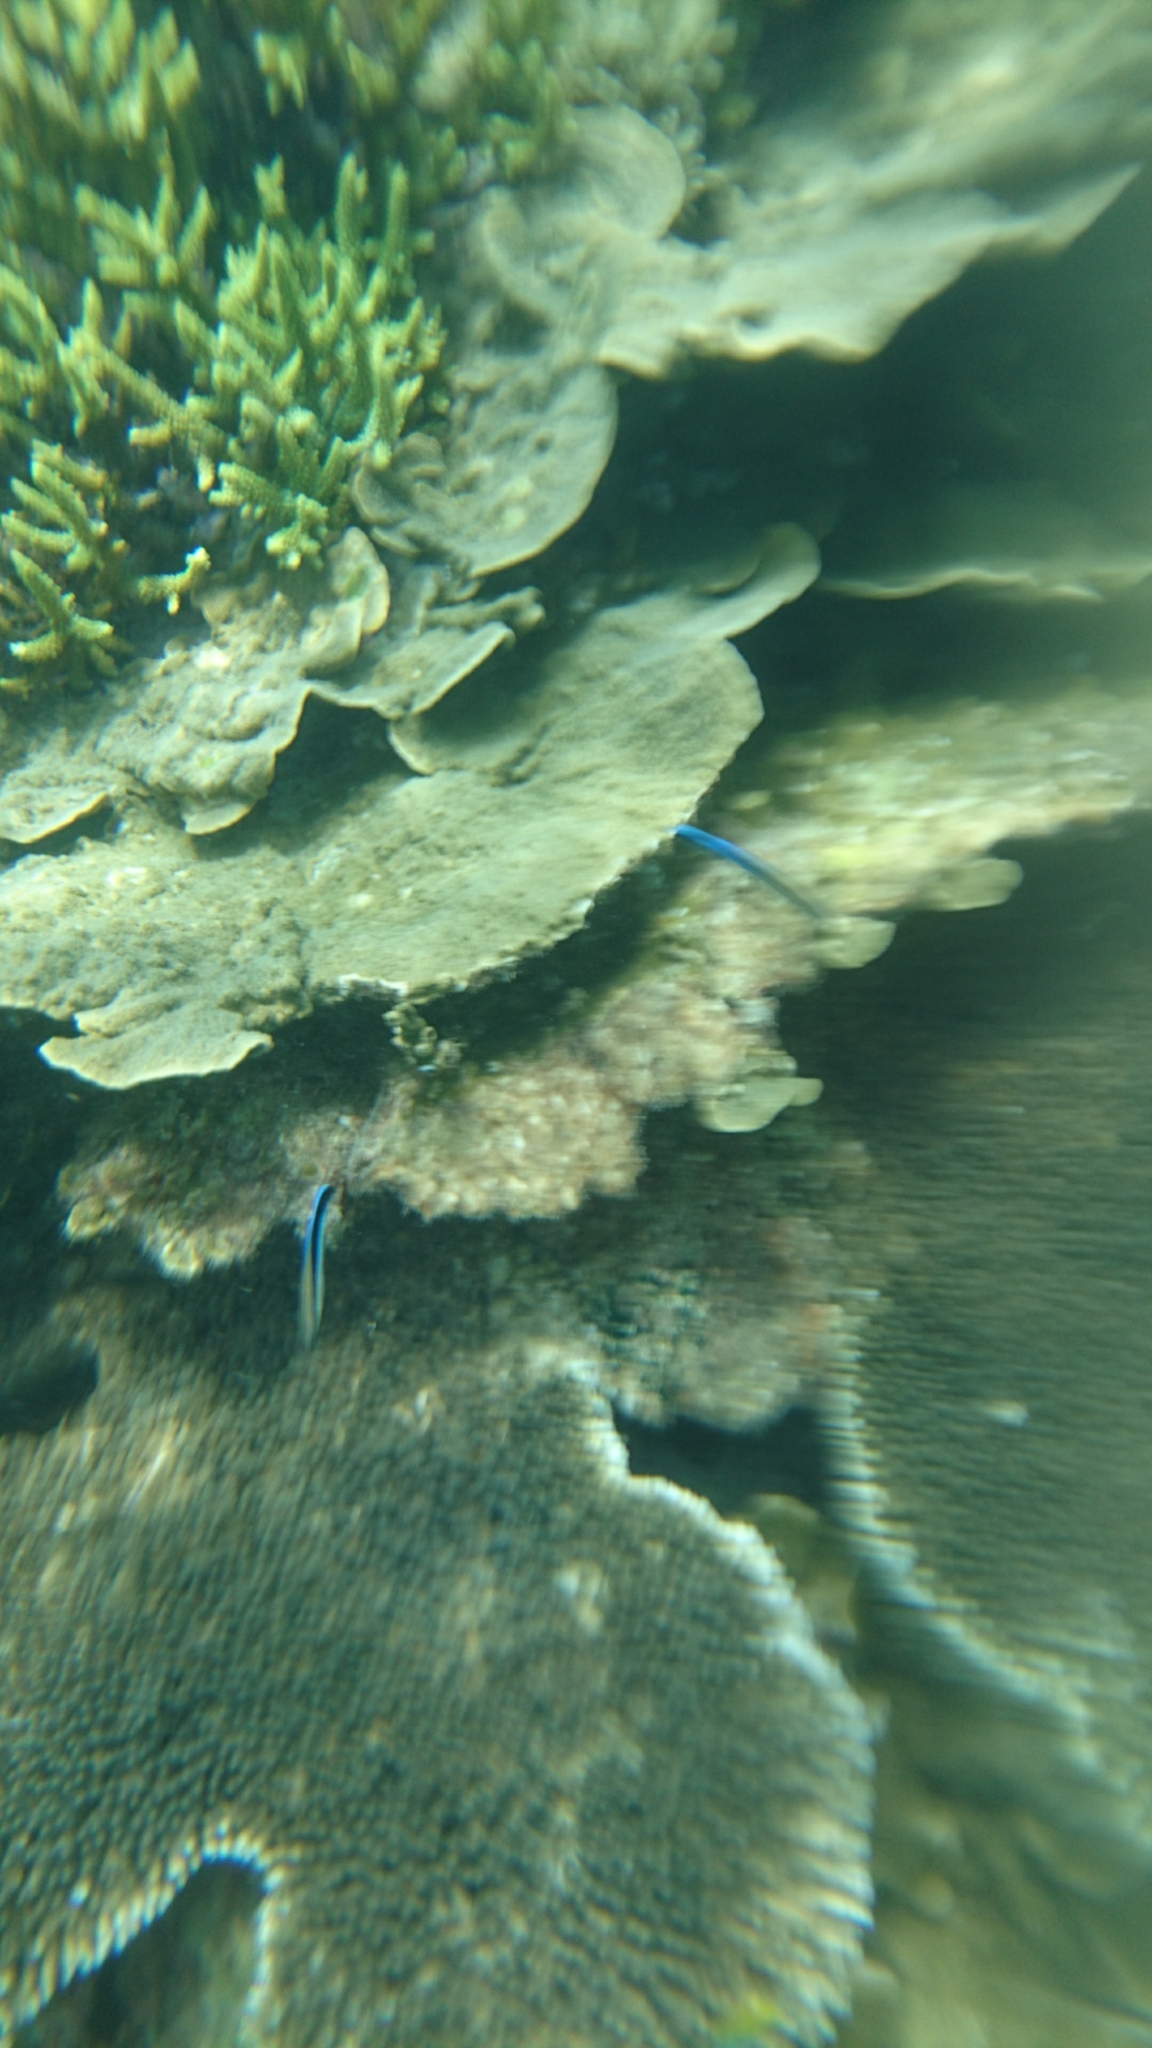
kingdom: Animalia
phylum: Chordata
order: Perciformes
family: Labridae
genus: Labroides
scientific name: Labroides dimidiatus
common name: Blue diesel wrasse
